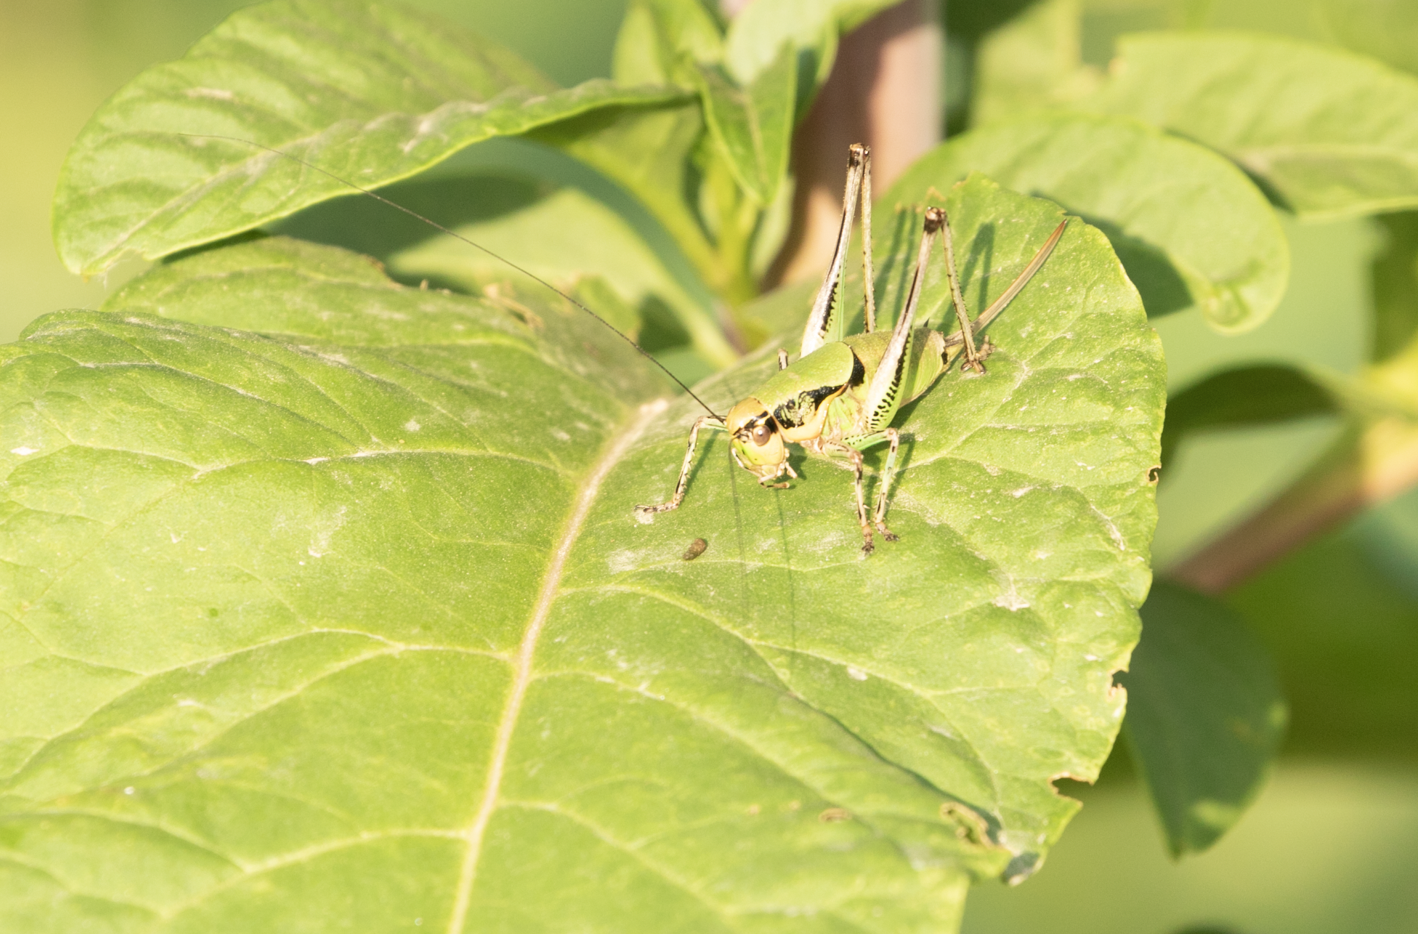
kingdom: Animalia
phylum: Arthropoda
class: Insecta
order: Orthoptera
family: Tettigoniidae
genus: Eupholidoptera
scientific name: Eupholidoptera chabrieri
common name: Chabrier's marbled bush-cricket
